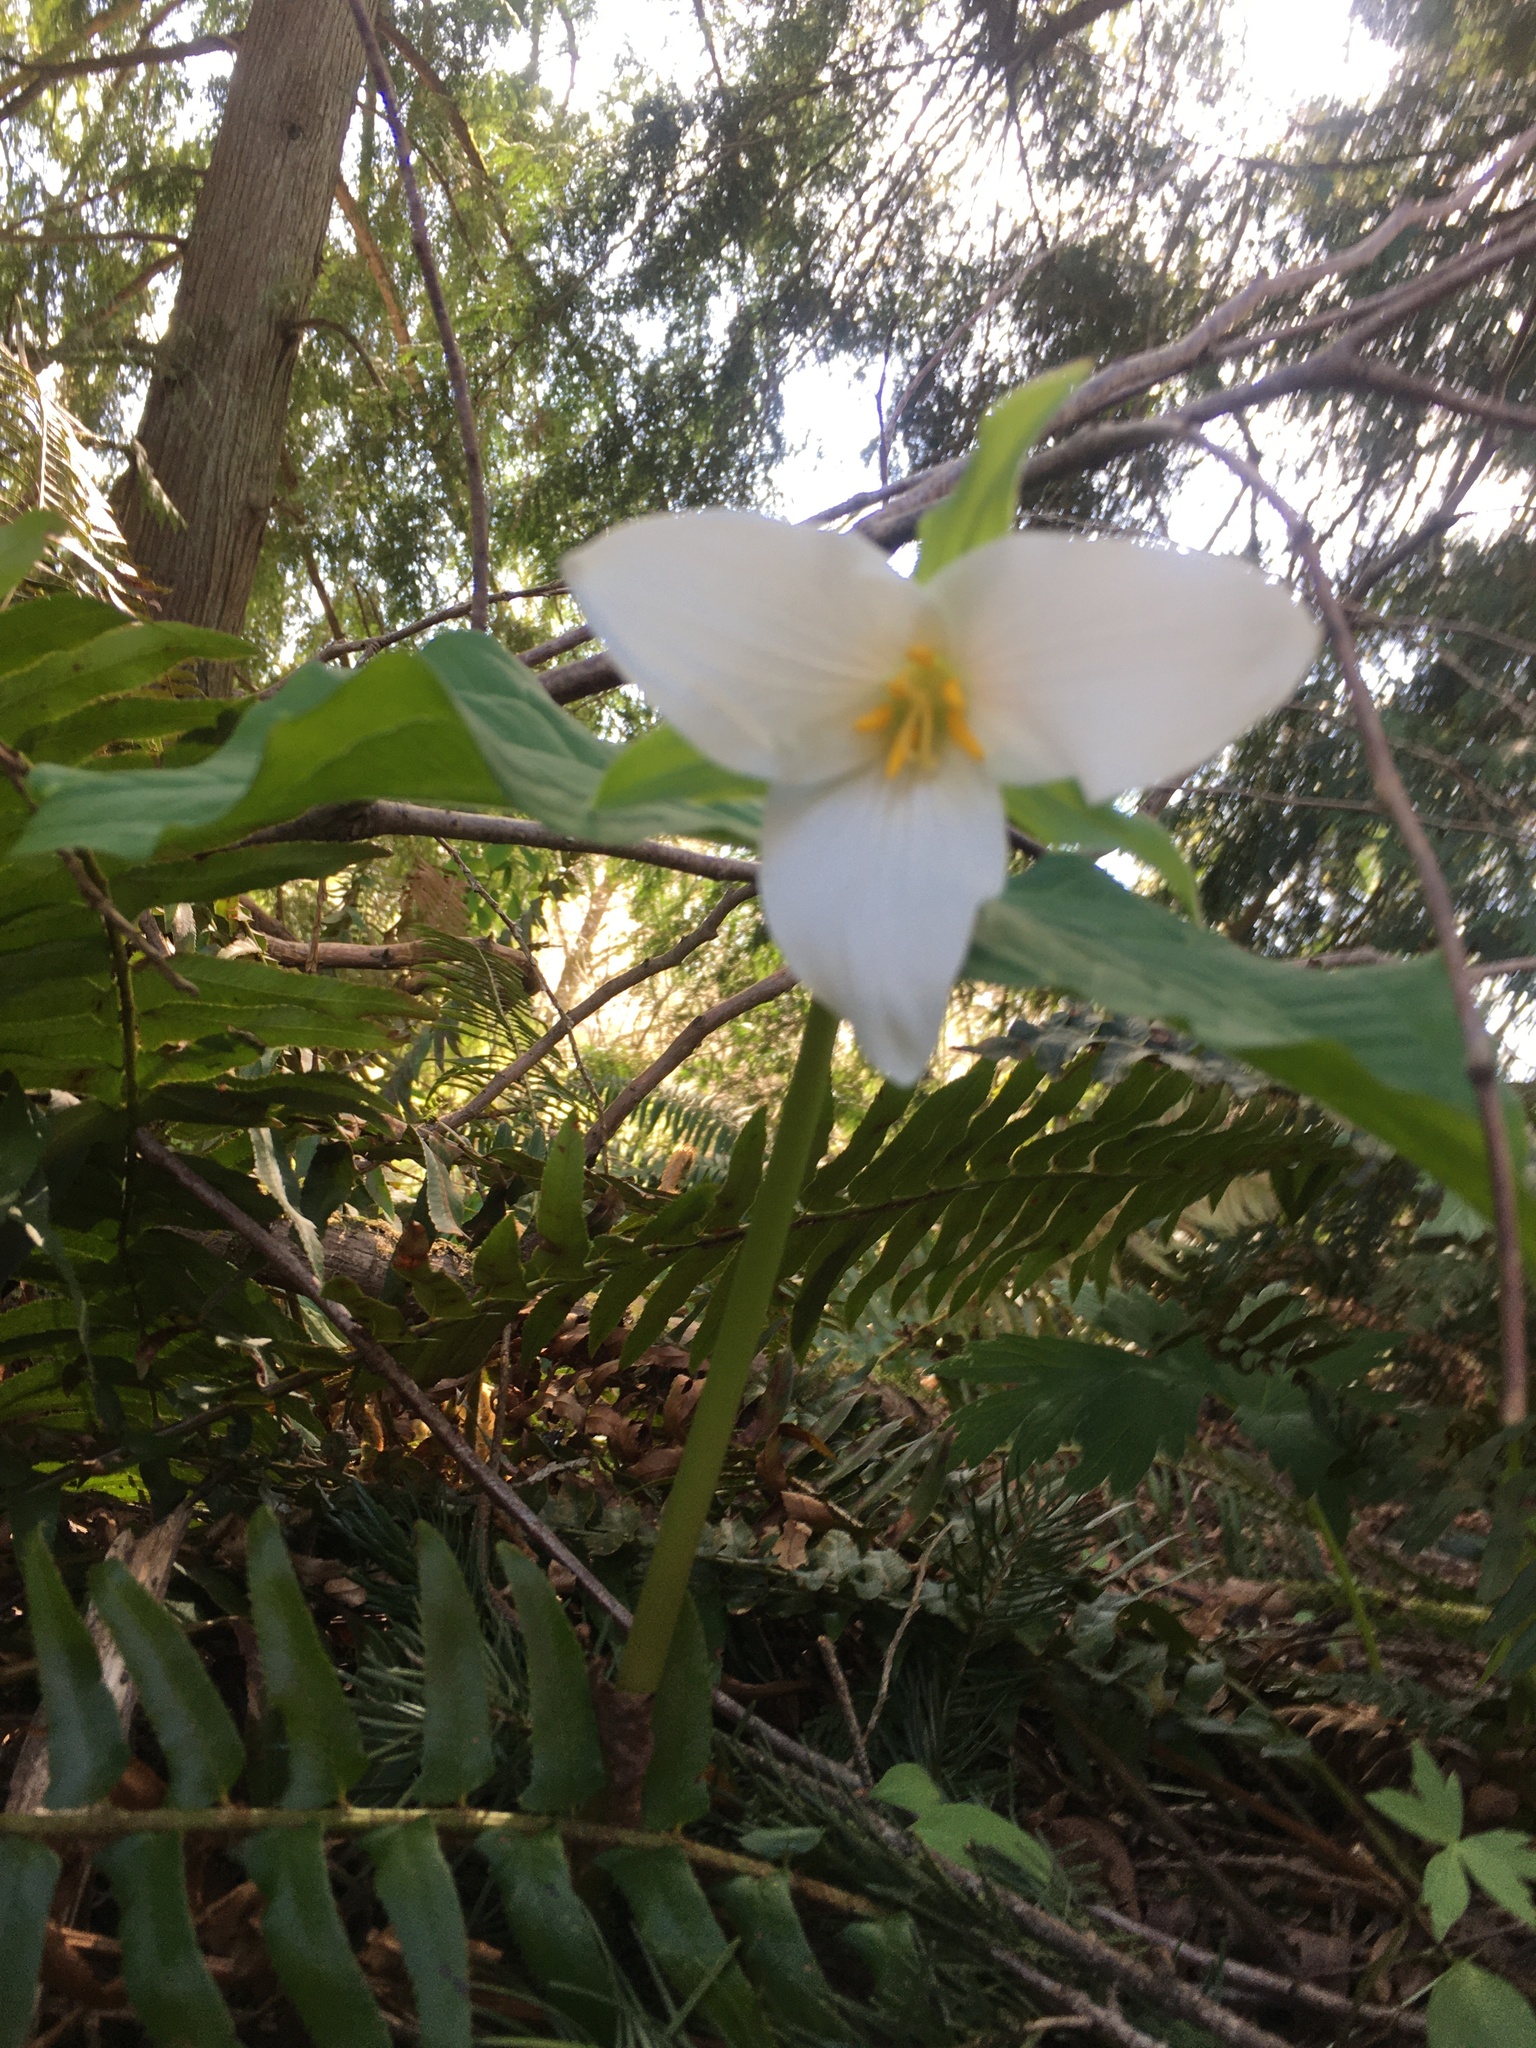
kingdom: Plantae
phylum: Tracheophyta
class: Liliopsida
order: Liliales
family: Melanthiaceae
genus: Trillium
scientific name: Trillium ovatum
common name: Pacific trillium
